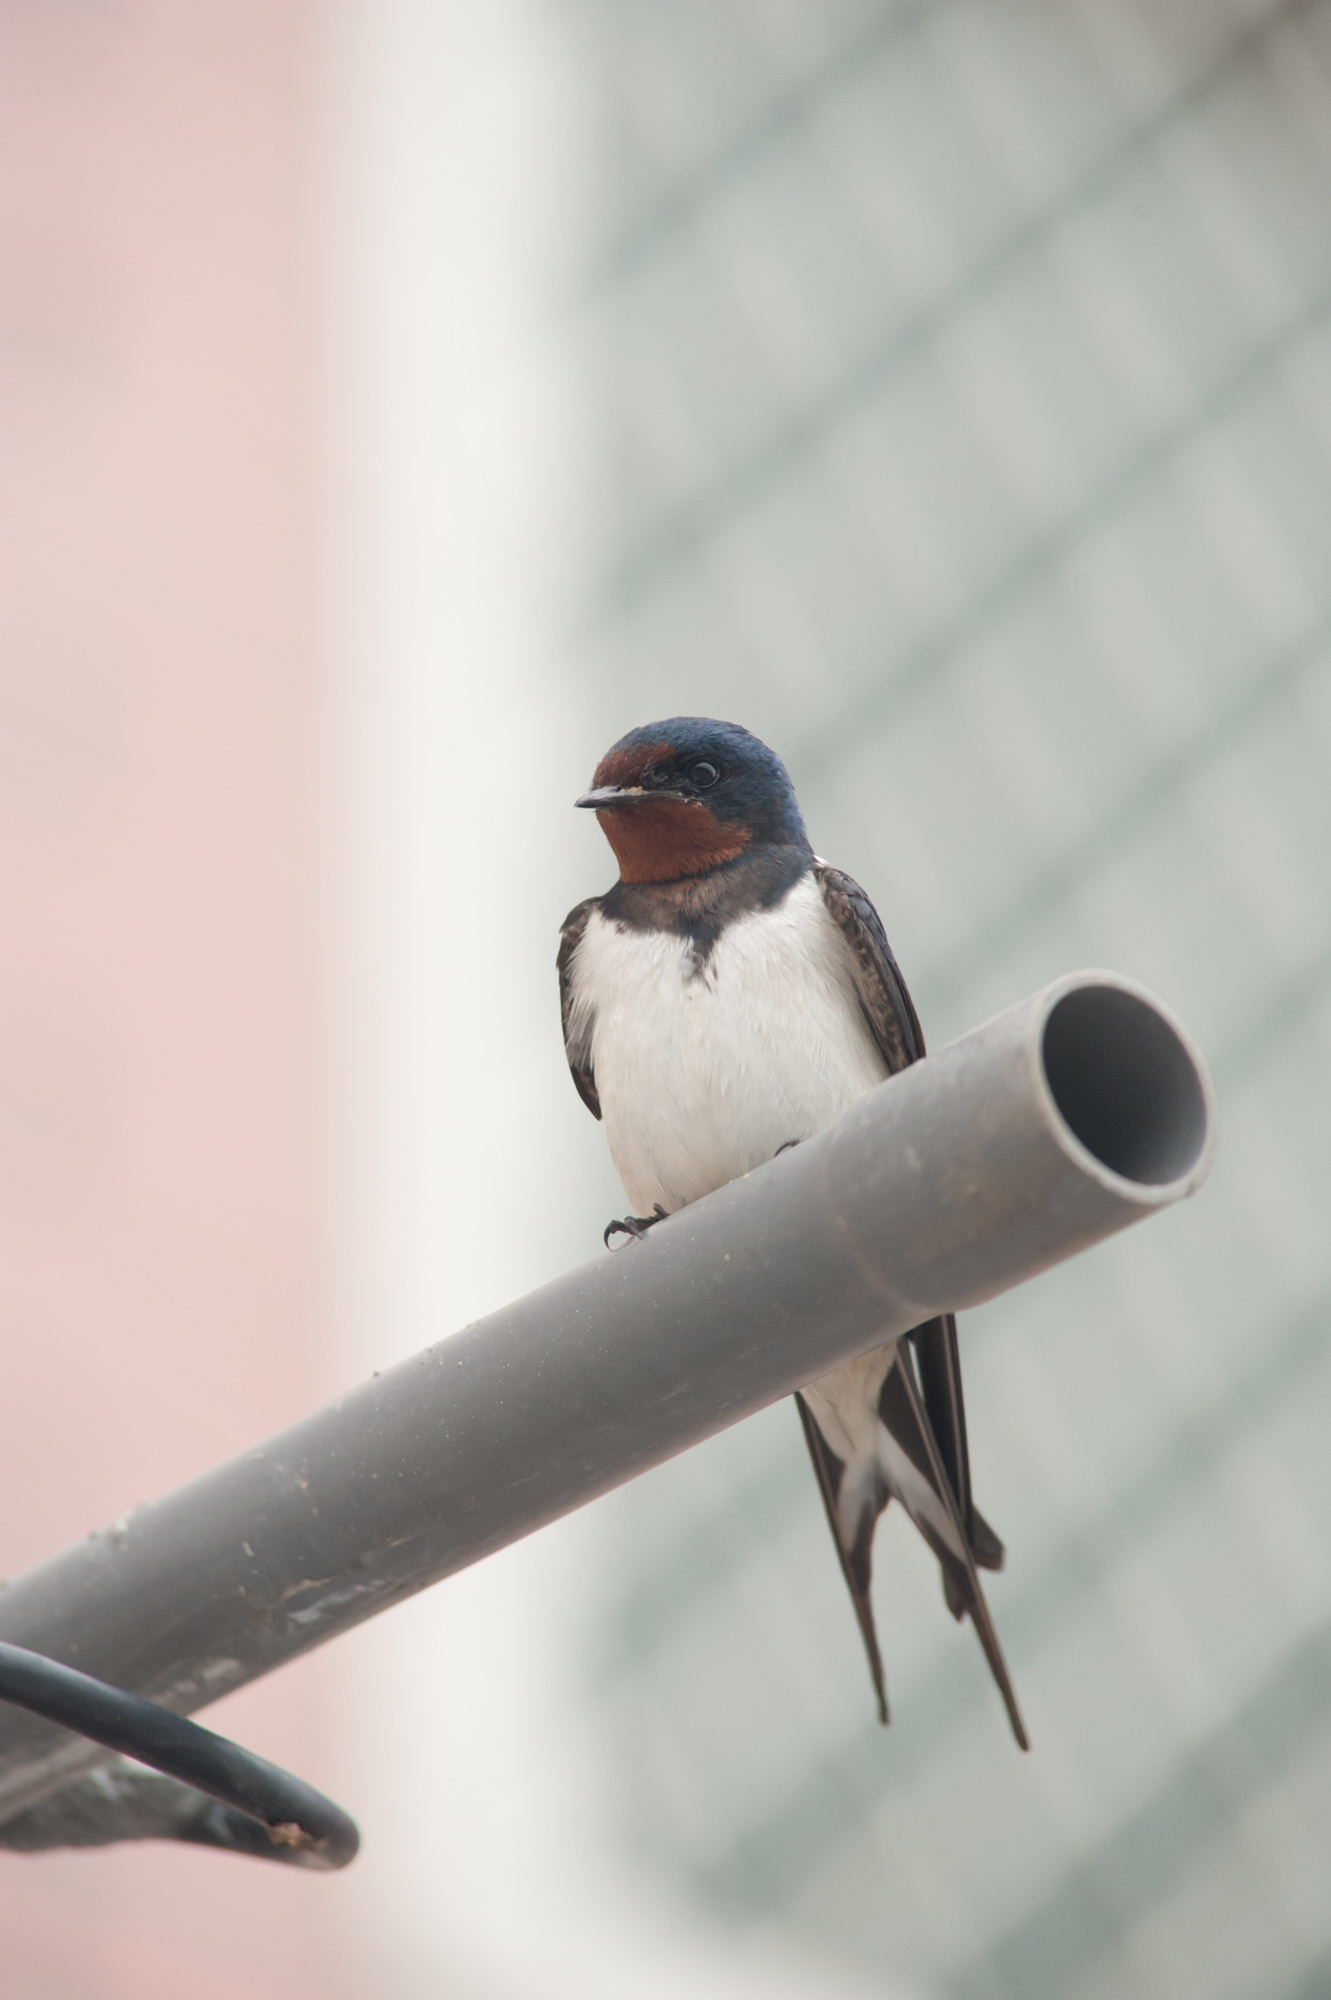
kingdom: Animalia
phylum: Chordata
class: Aves
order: Passeriformes
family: Hirundinidae
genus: Hirundo
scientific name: Hirundo rustica
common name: Barn swallow
